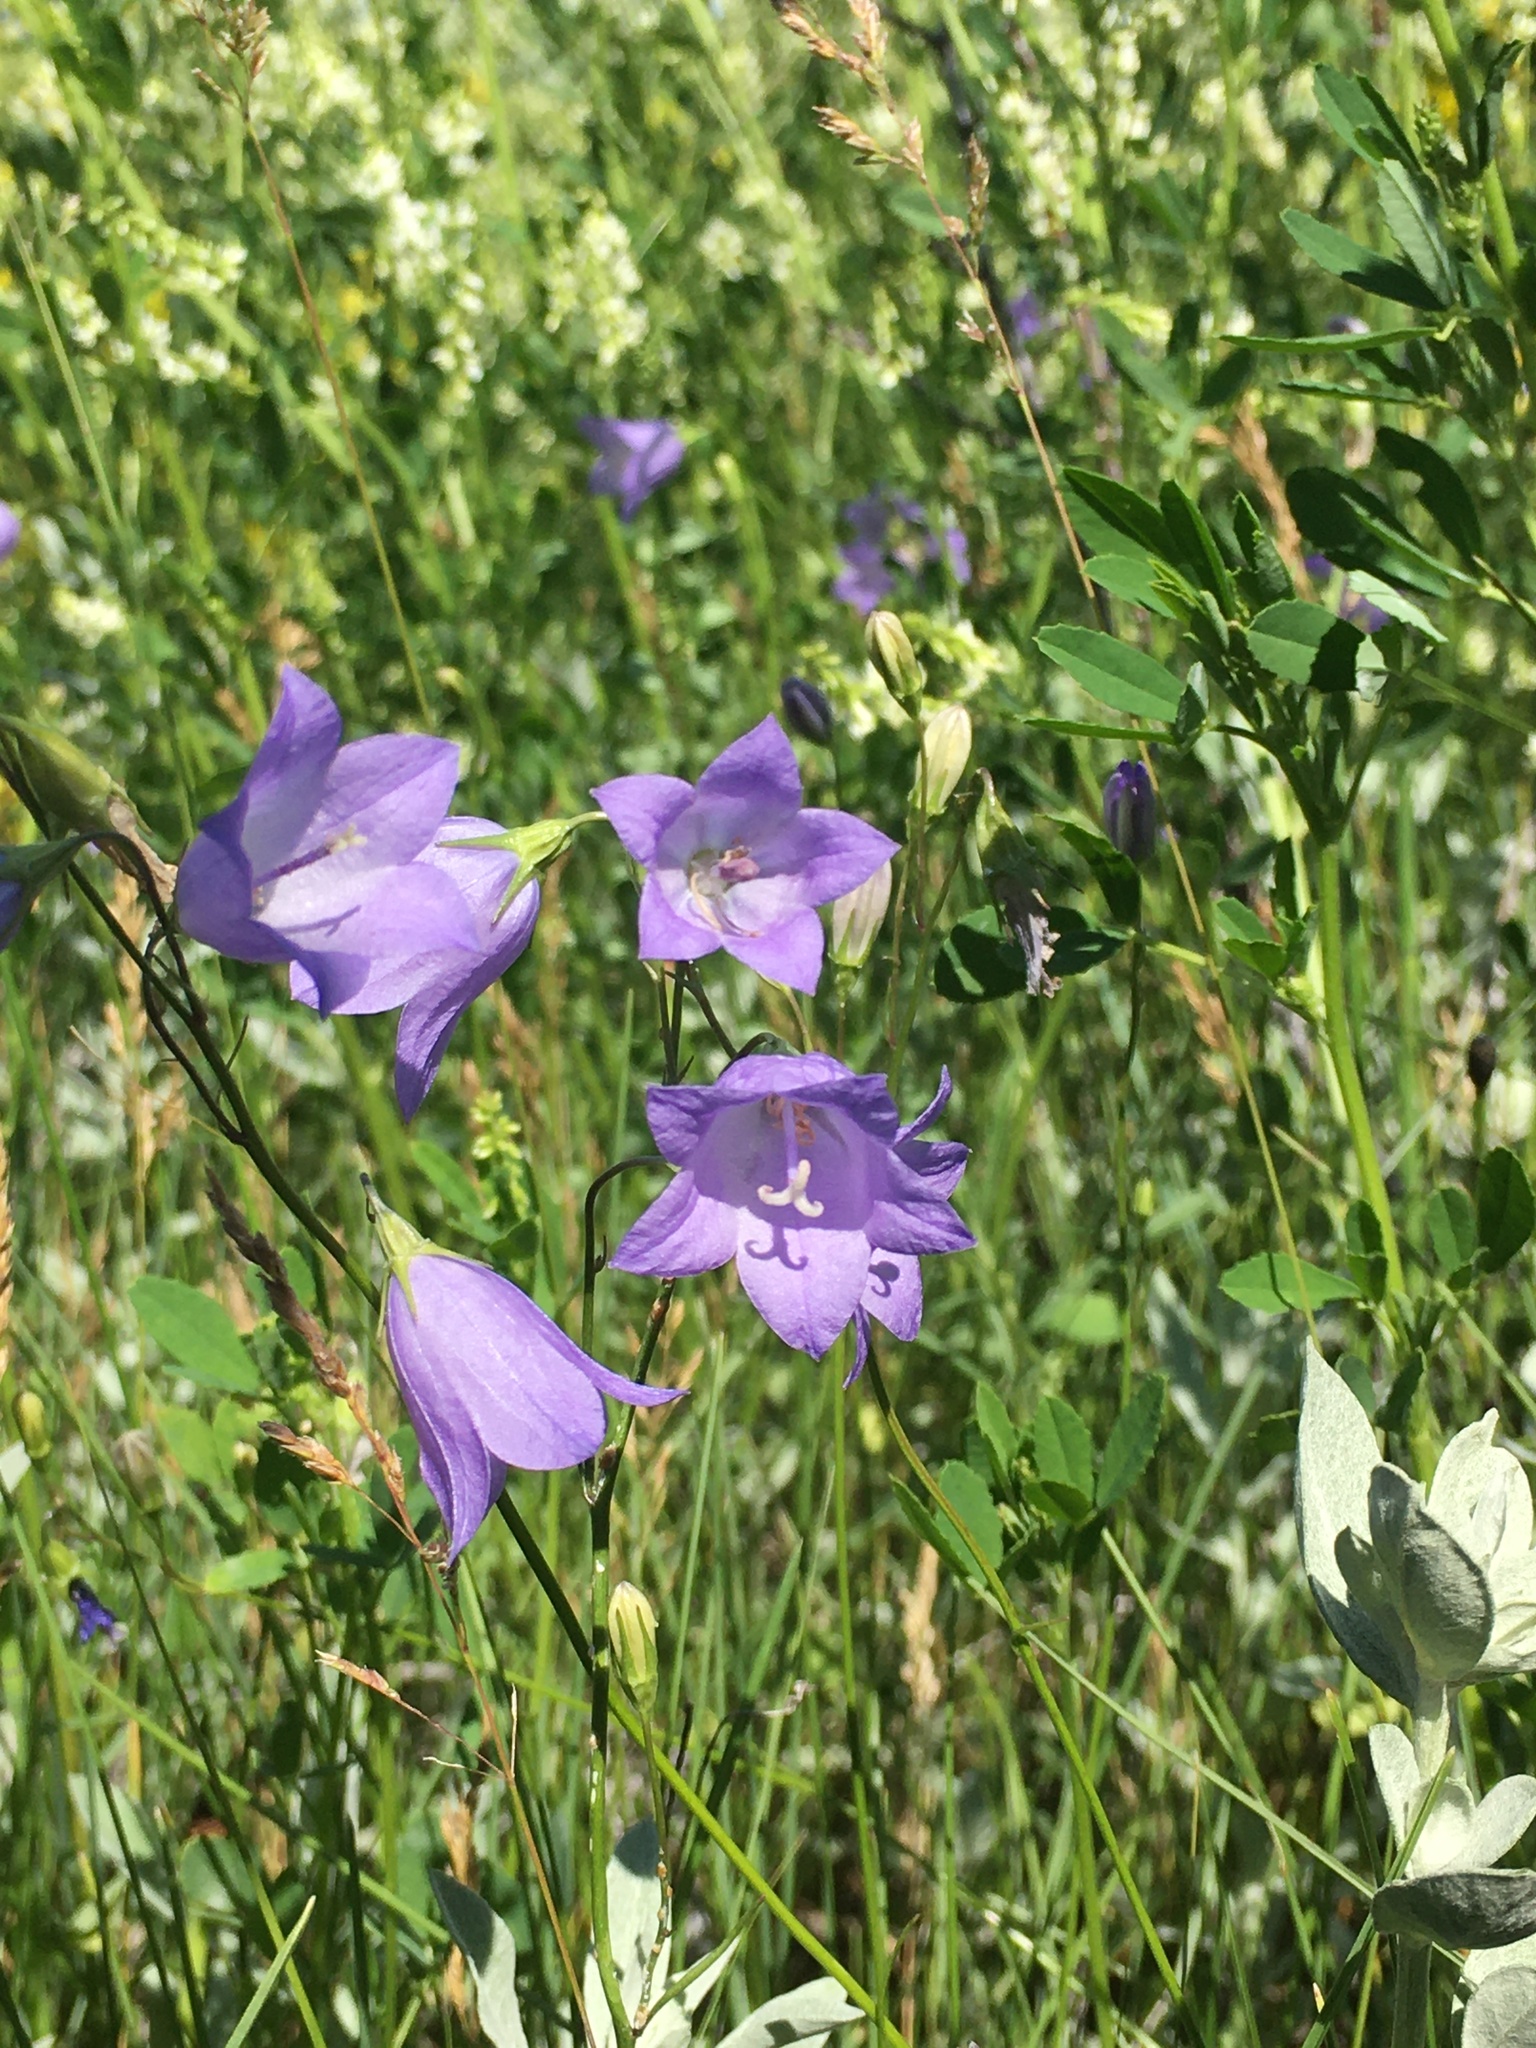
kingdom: Plantae
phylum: Tracheophyta
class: Magnoliopsida
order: Asterales
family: Campanulaceae
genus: Campanula
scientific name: Campanula alaskana
